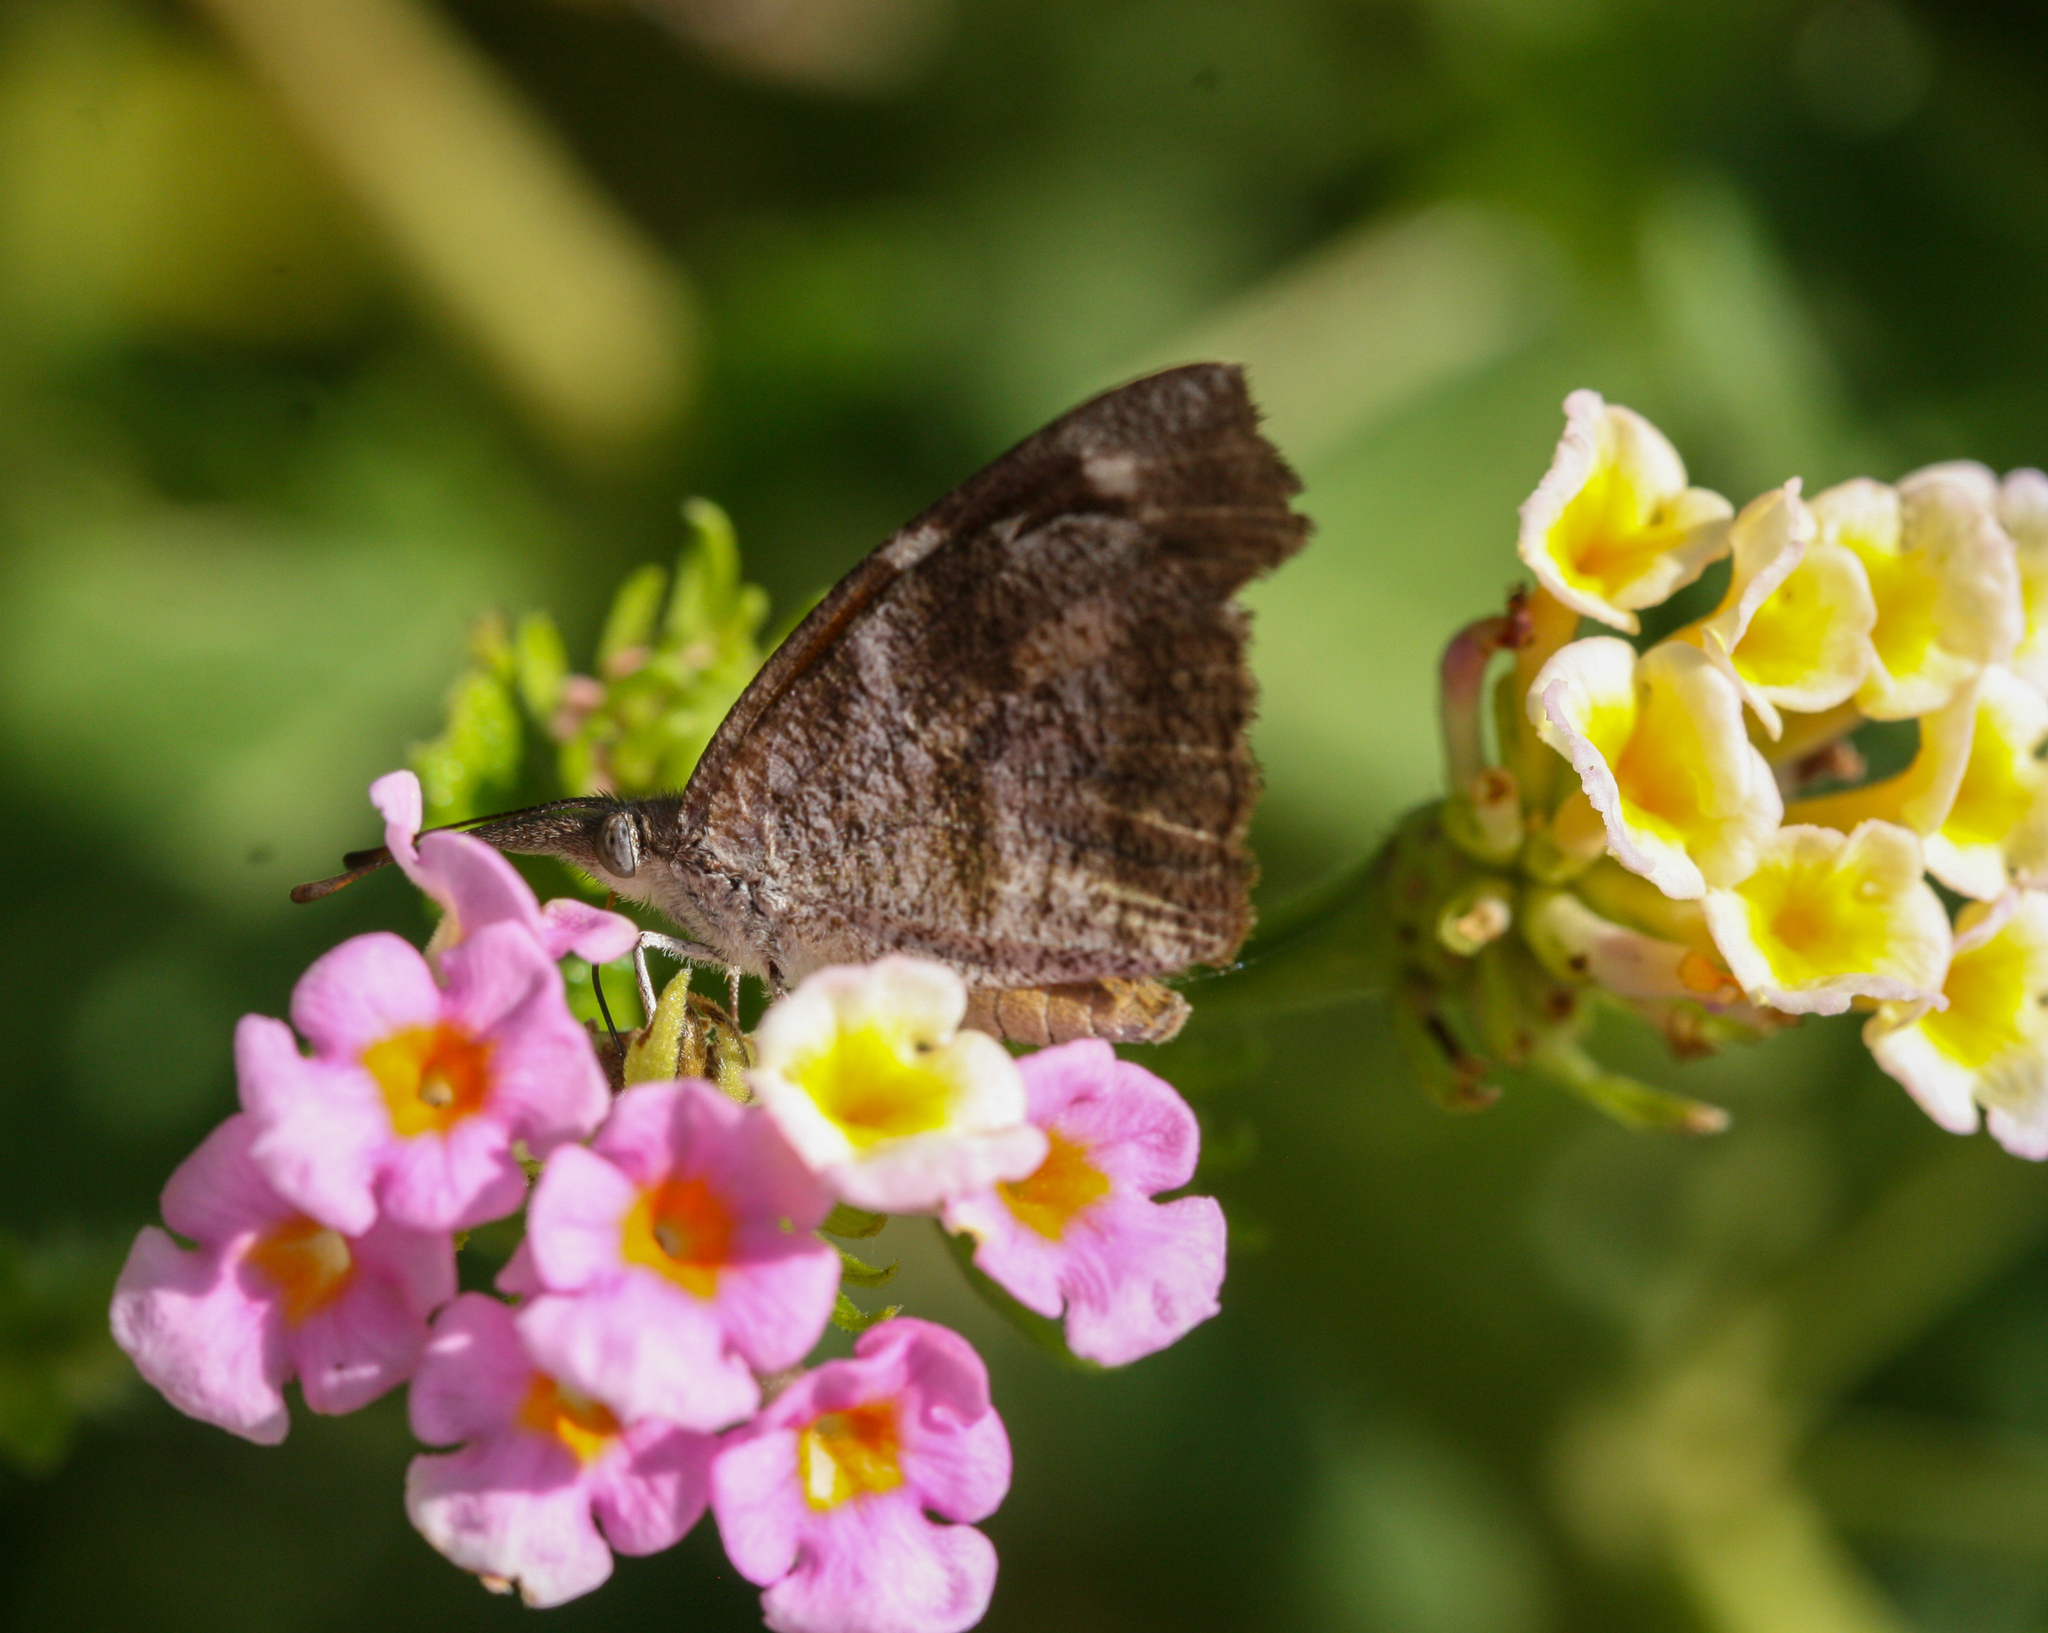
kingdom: Animalia
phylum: Arthropoda
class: Insecta
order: Lepidoptera
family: Nymphalidae
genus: Libytheana
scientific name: Libytheana carinenta
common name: American snout
